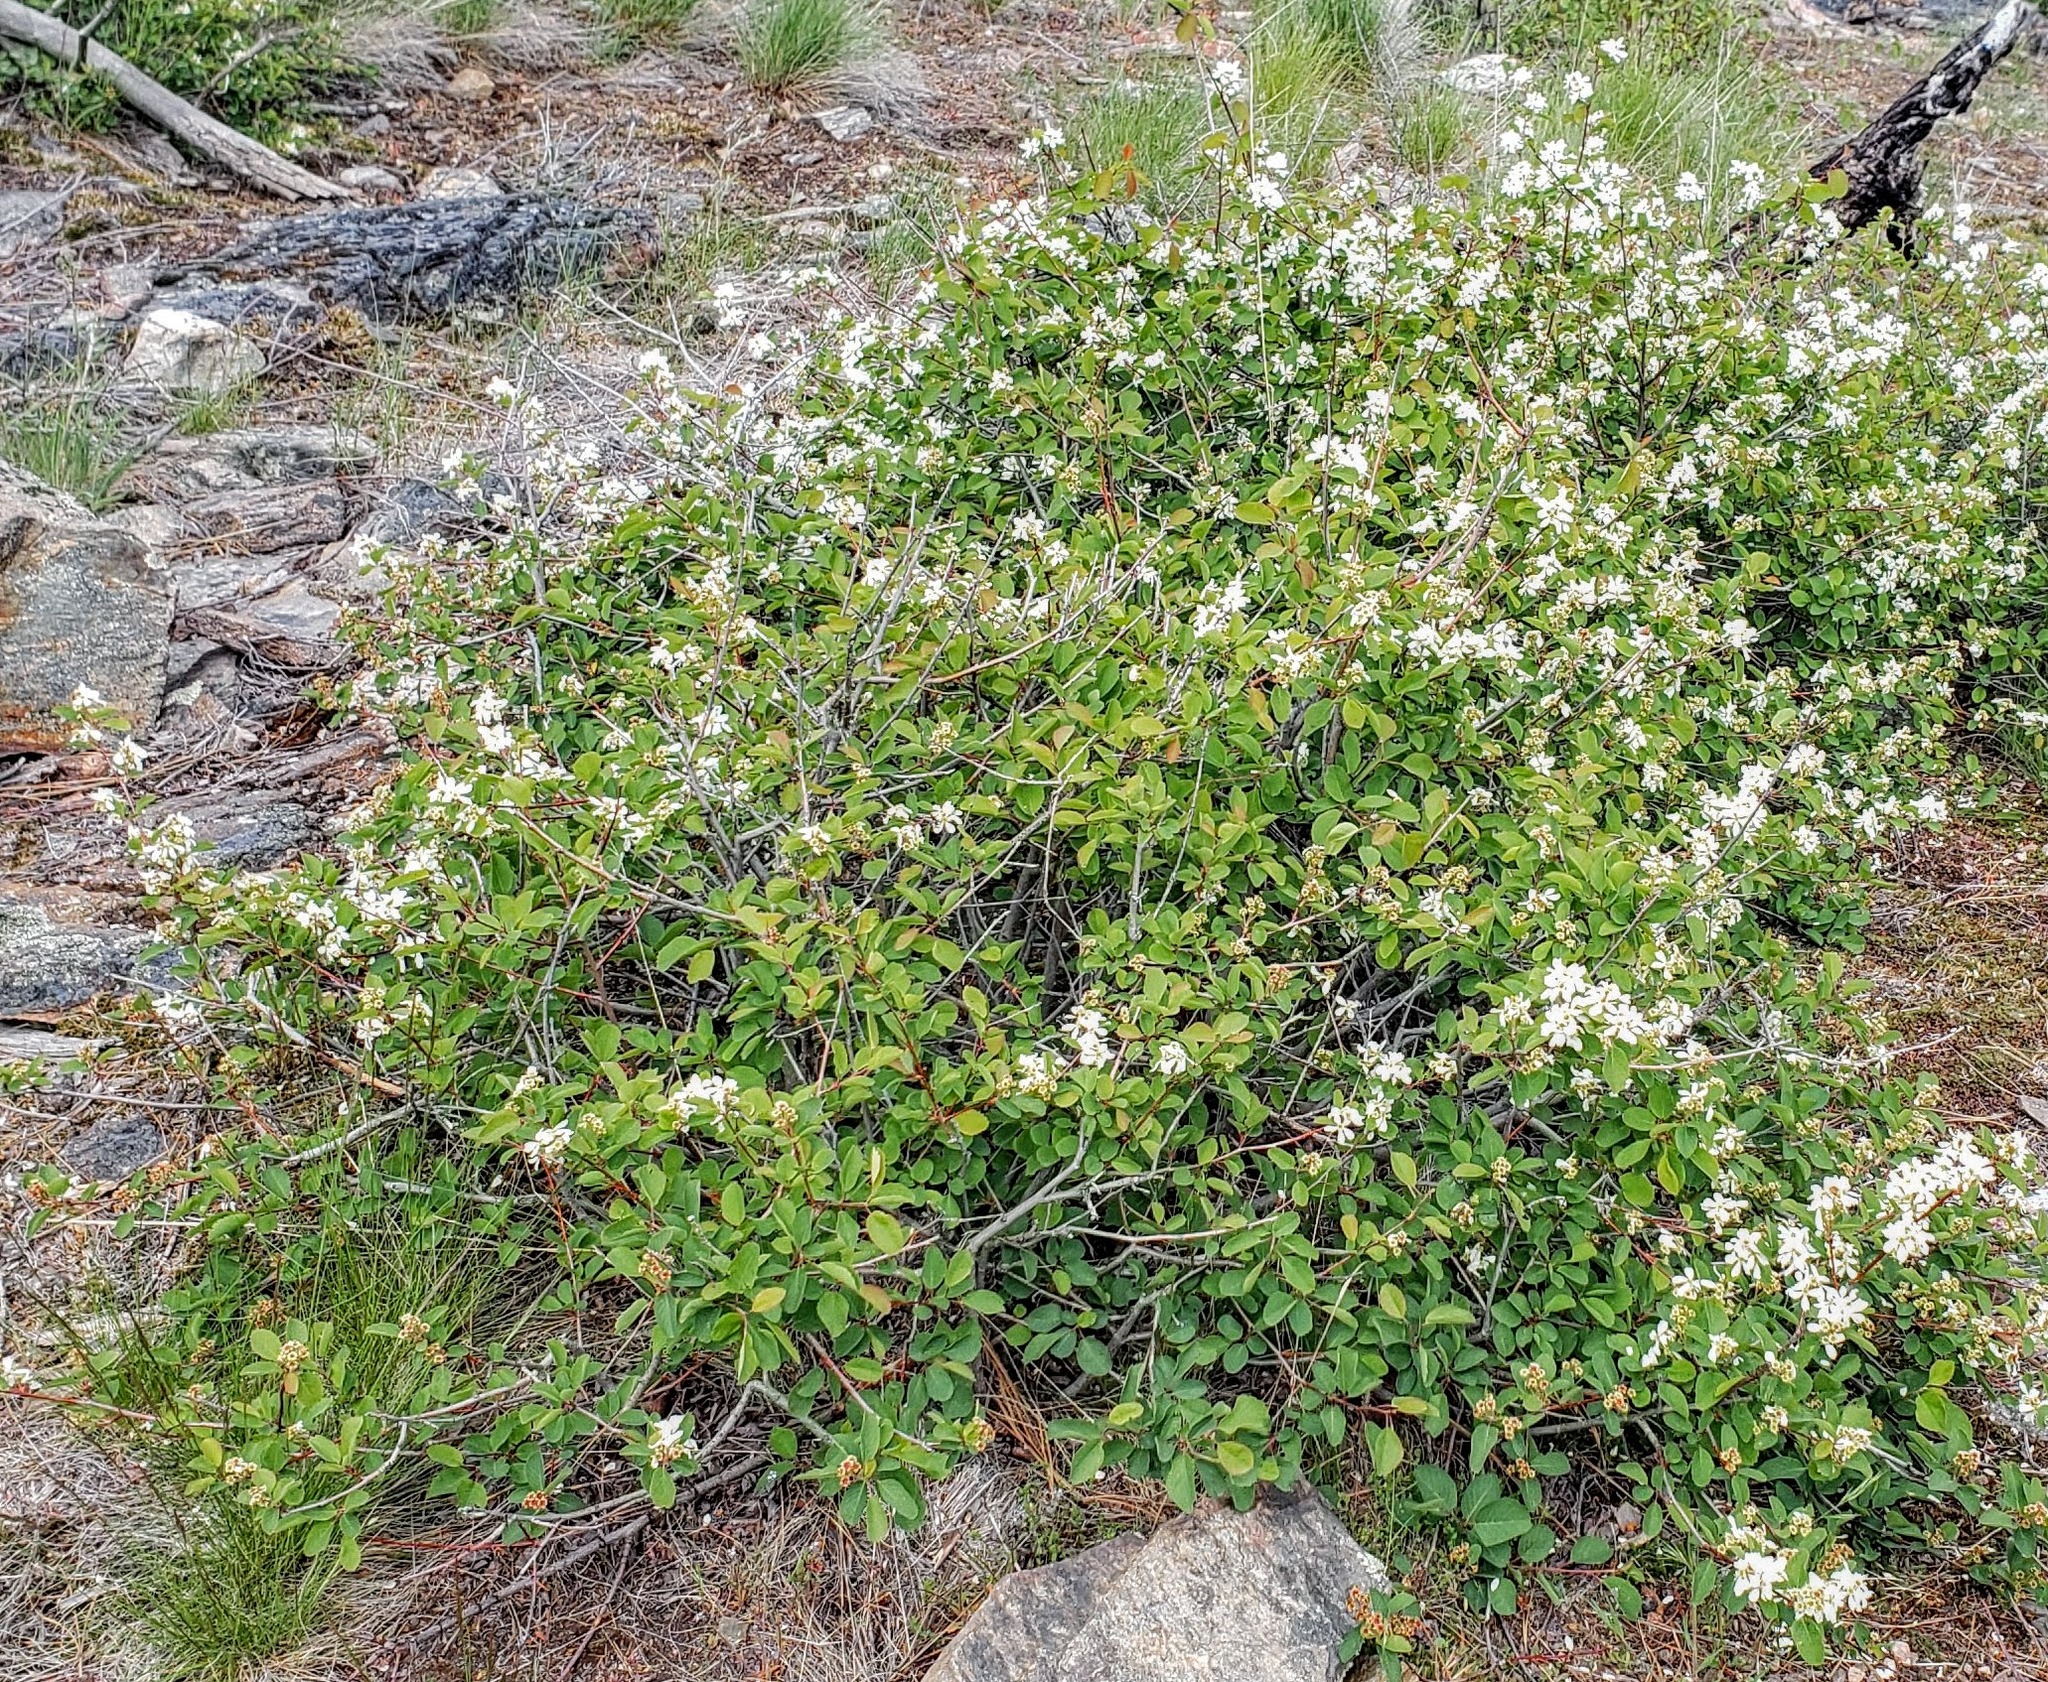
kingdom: Plantae
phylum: Tracheophyta
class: Magnoliopsida
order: Rosales
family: Rosaceae
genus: Amelanchier
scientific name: Amelanchier alnifolia
